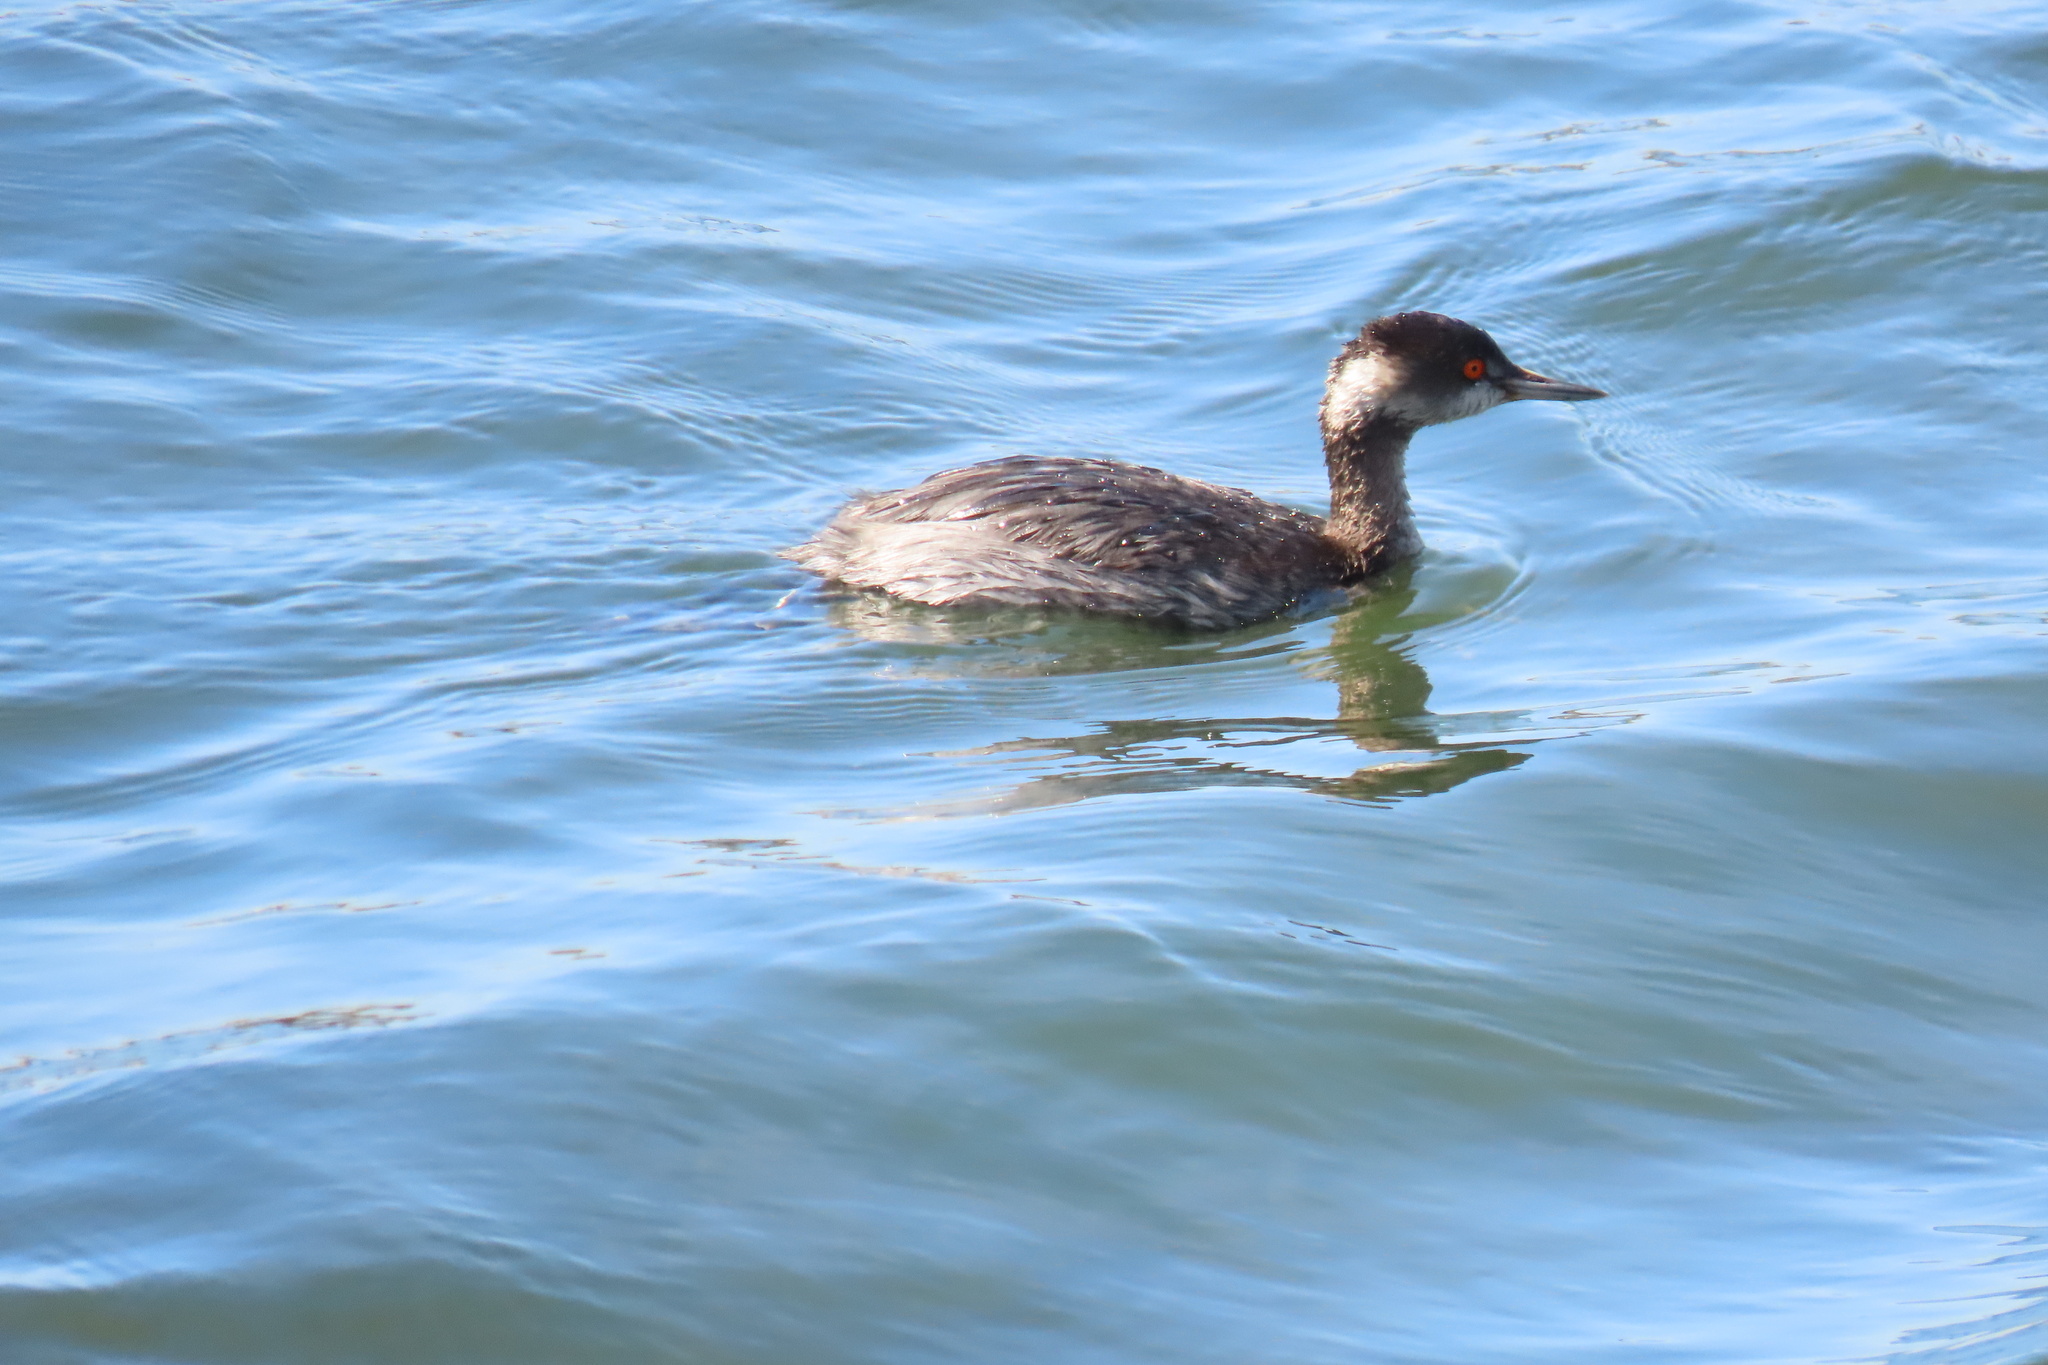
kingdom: Animalia
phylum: Chordata
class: Aves
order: Podicipediformes
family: Podicipedidae
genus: Podiceps
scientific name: Podiceps nigricollis
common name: Black-necked grebe
